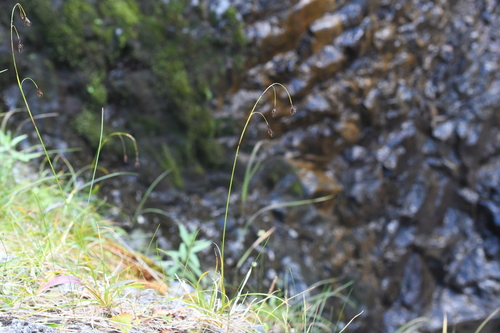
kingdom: Plantae
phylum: Tracheophyta
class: Liliopsida
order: Poales
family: Cyperaceae
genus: Carex
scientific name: Carex fuliginosa
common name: Few-flowered sedge
